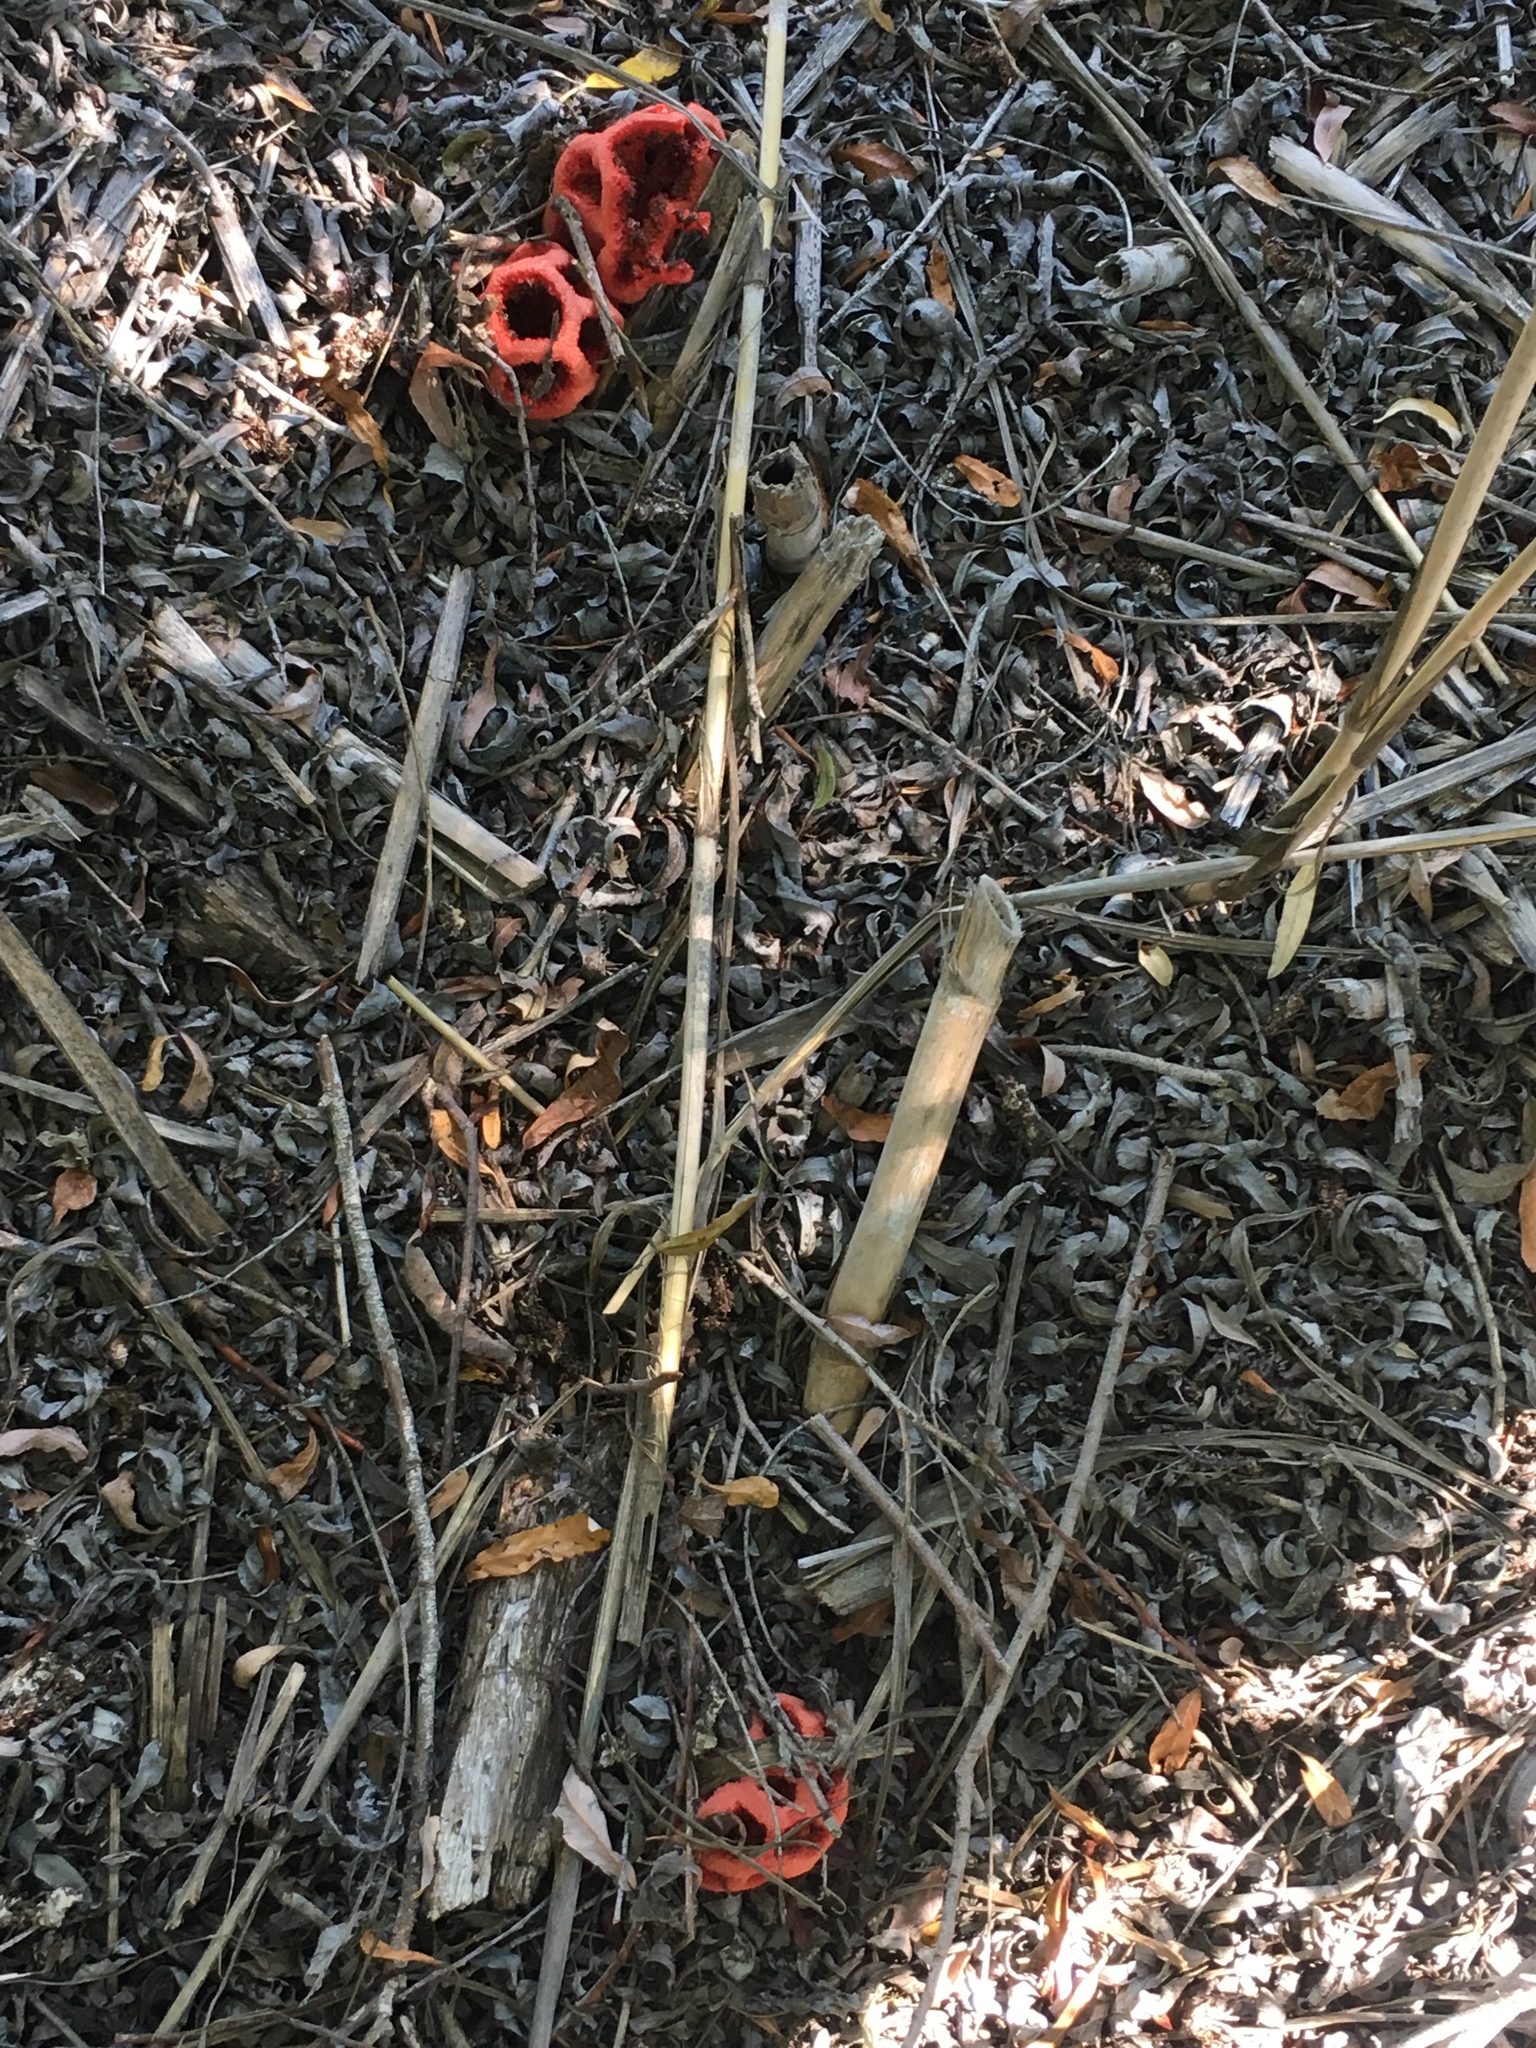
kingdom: Fungi
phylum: Basidiomycota
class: Agaricomycetes
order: Phallales
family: Phallaceae
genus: Clathrus
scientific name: Clathrus ruber
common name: Red cage
